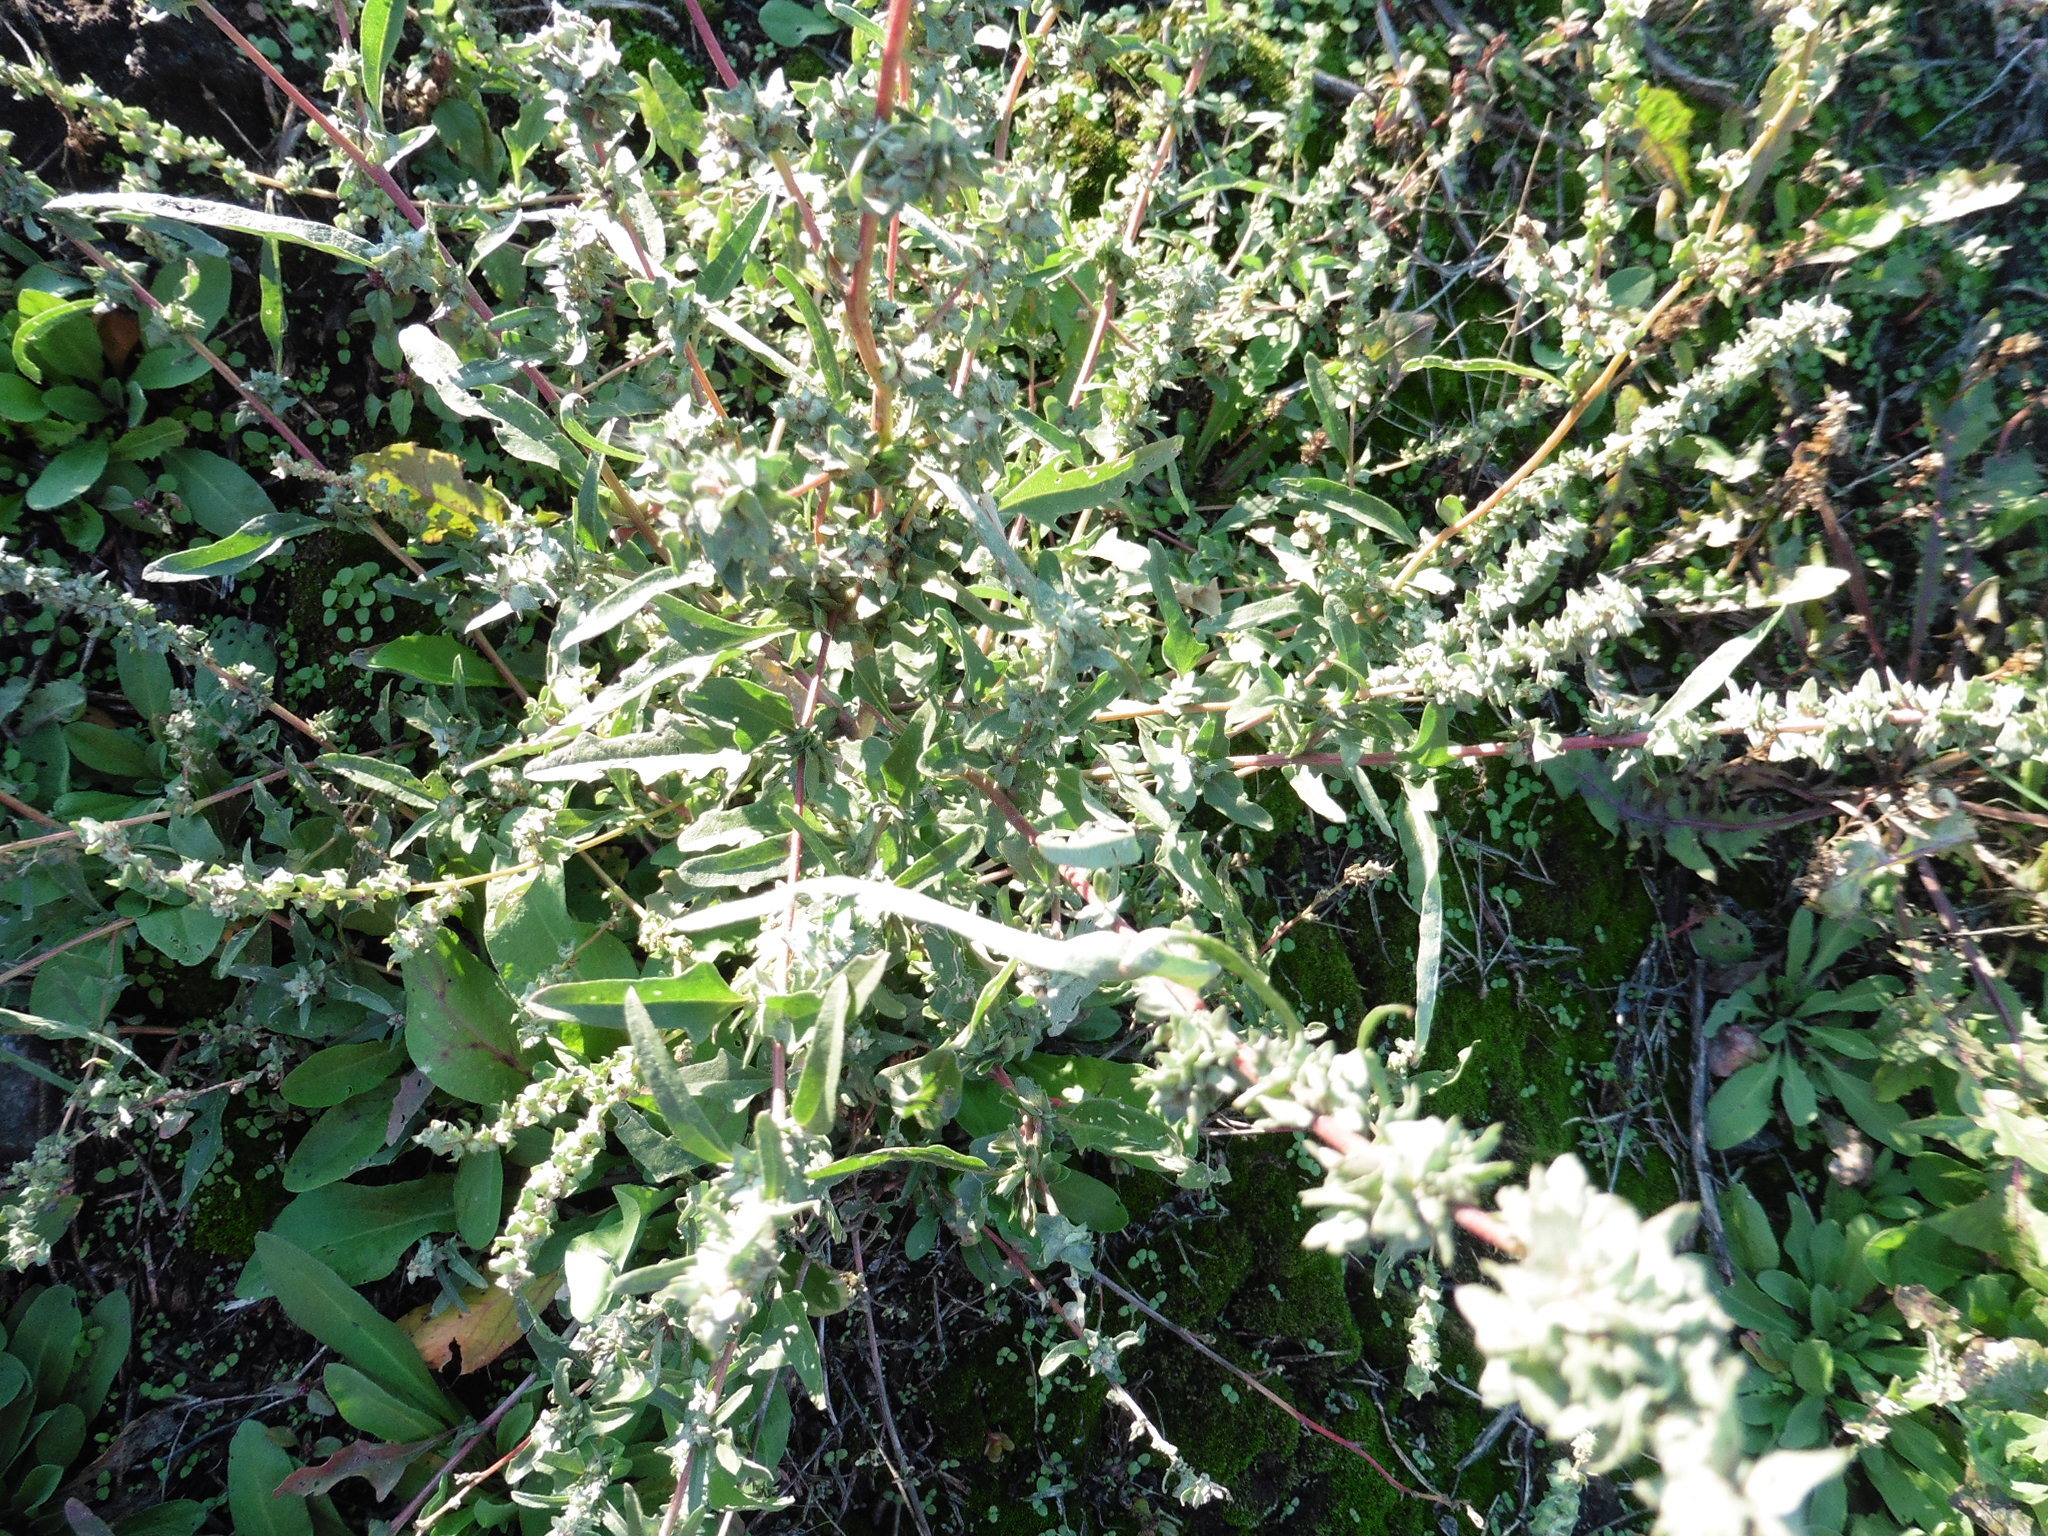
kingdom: Plantae
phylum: Tracheophyta
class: Magnoliopsida
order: Caryophyllales
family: Amaranthaceae
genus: Atriplex
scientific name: Atriplex tatarica
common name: Tatarian orache
